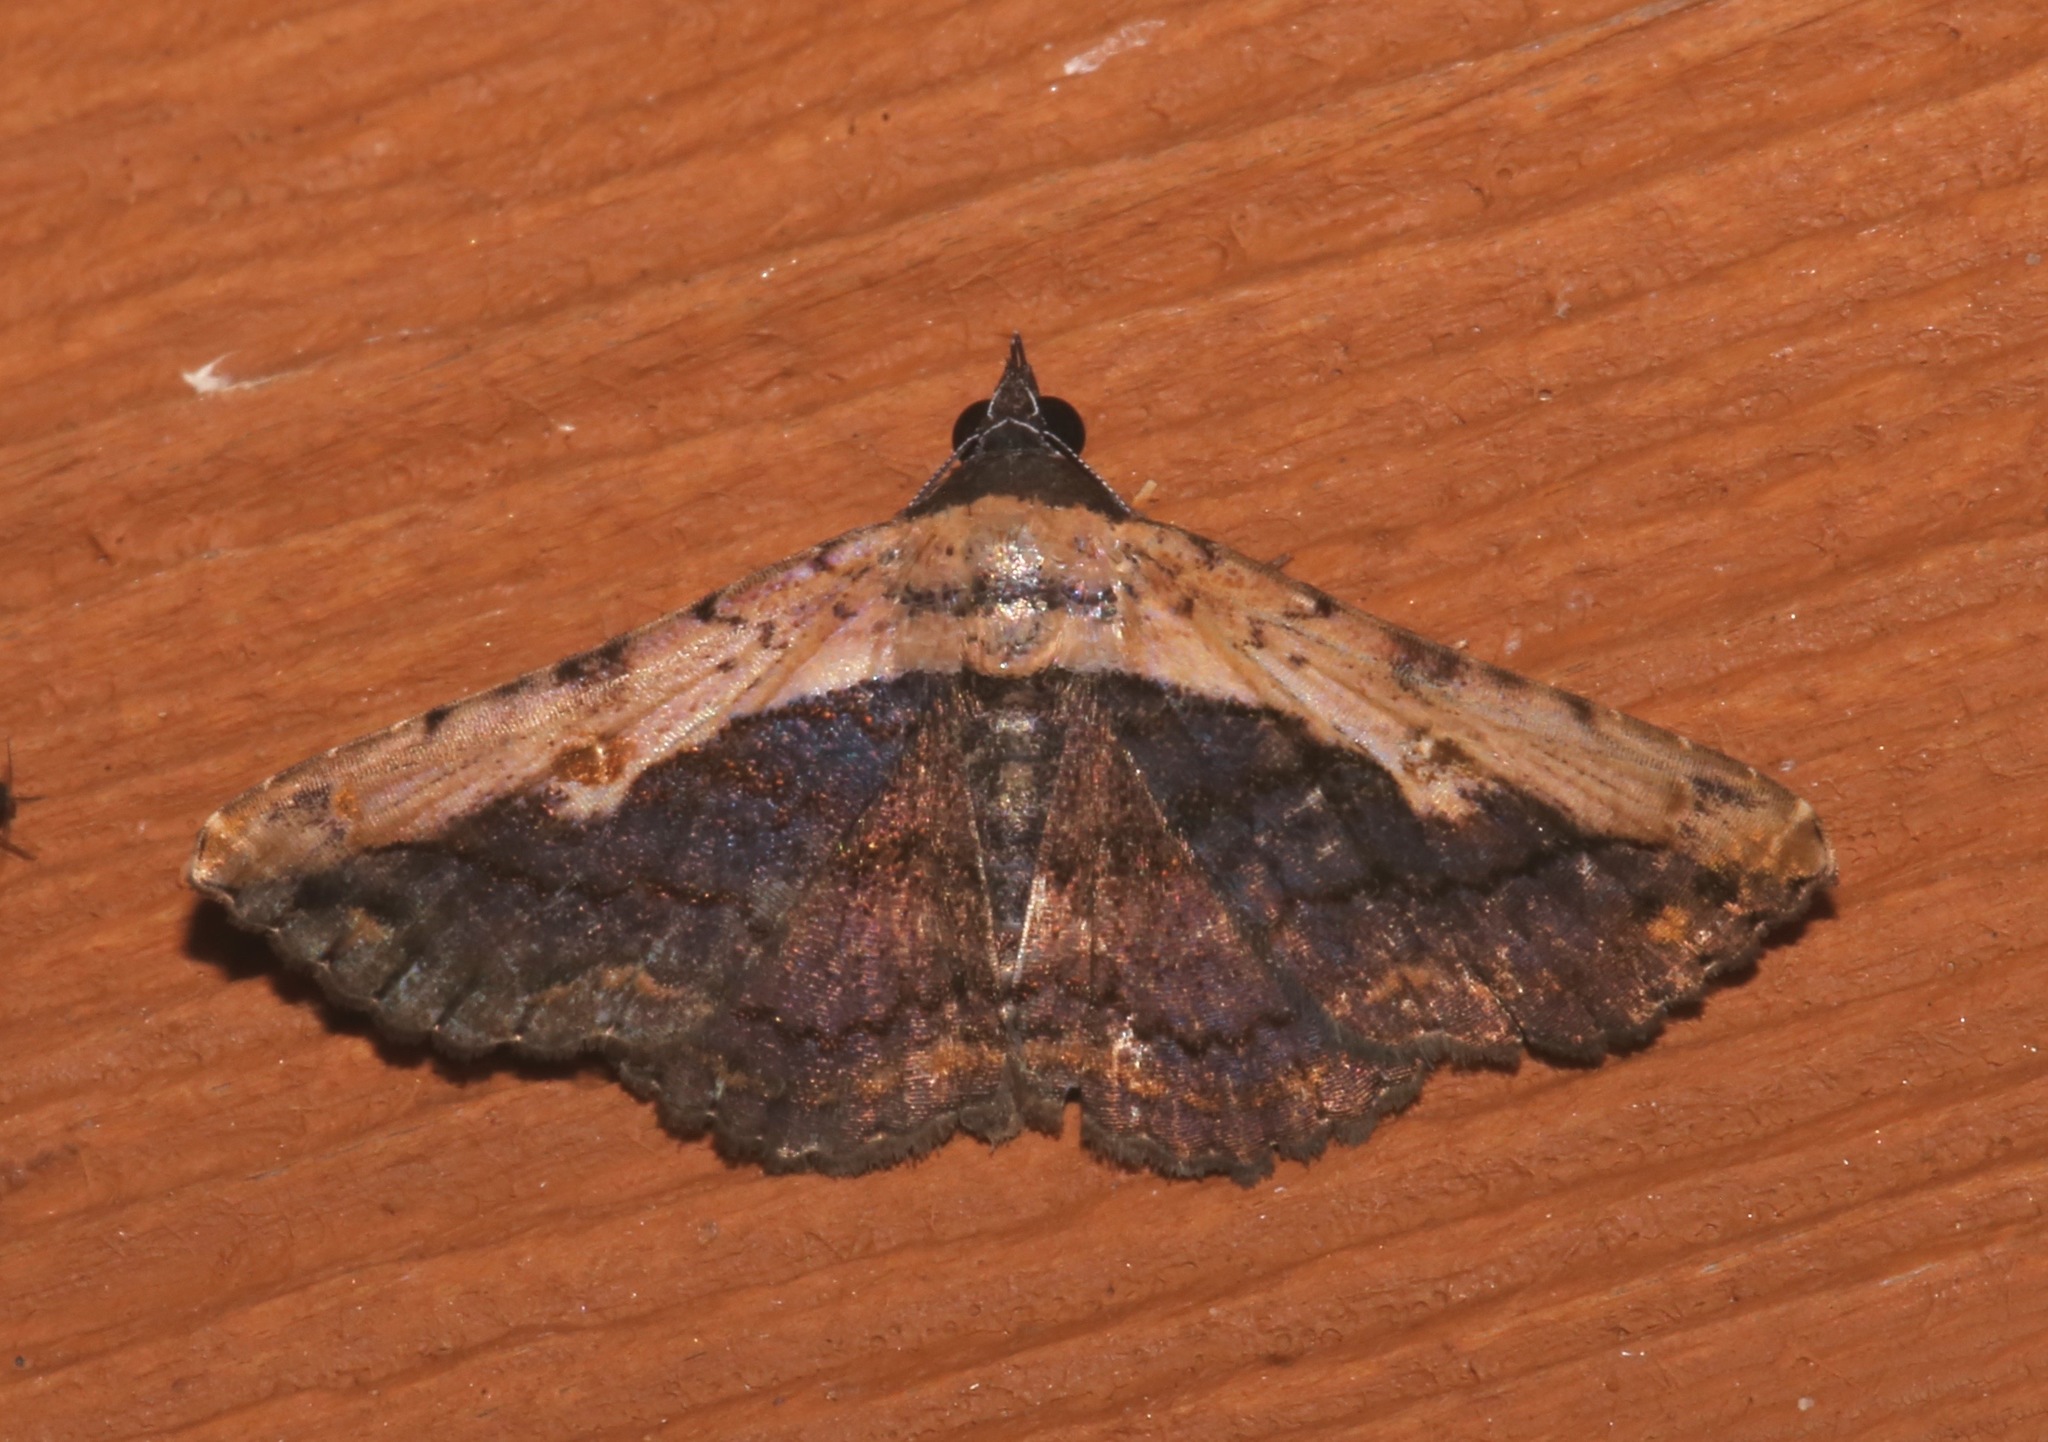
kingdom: Animalia
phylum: Arthropoda
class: Insecta
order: Lepidoptera
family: Erebidae
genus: Selenisa
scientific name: Selenisa sueroides
